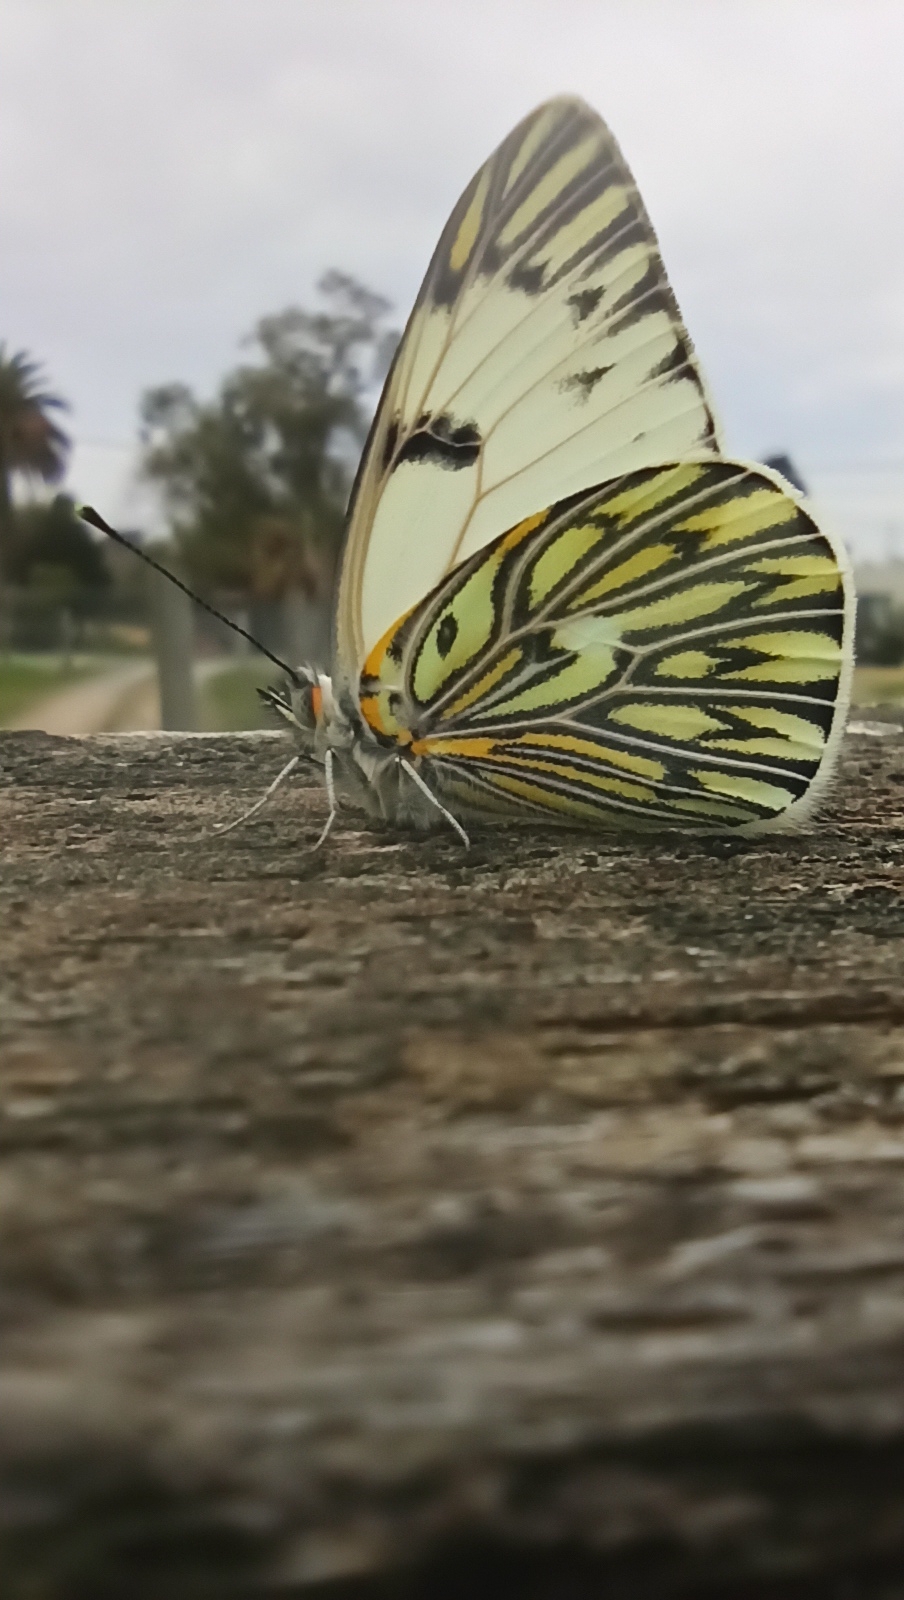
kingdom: Animalia
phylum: Arthropoda
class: Insecta
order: Lepidoptera
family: Pieridae
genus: Tatochila
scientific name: Tatochila autodice
